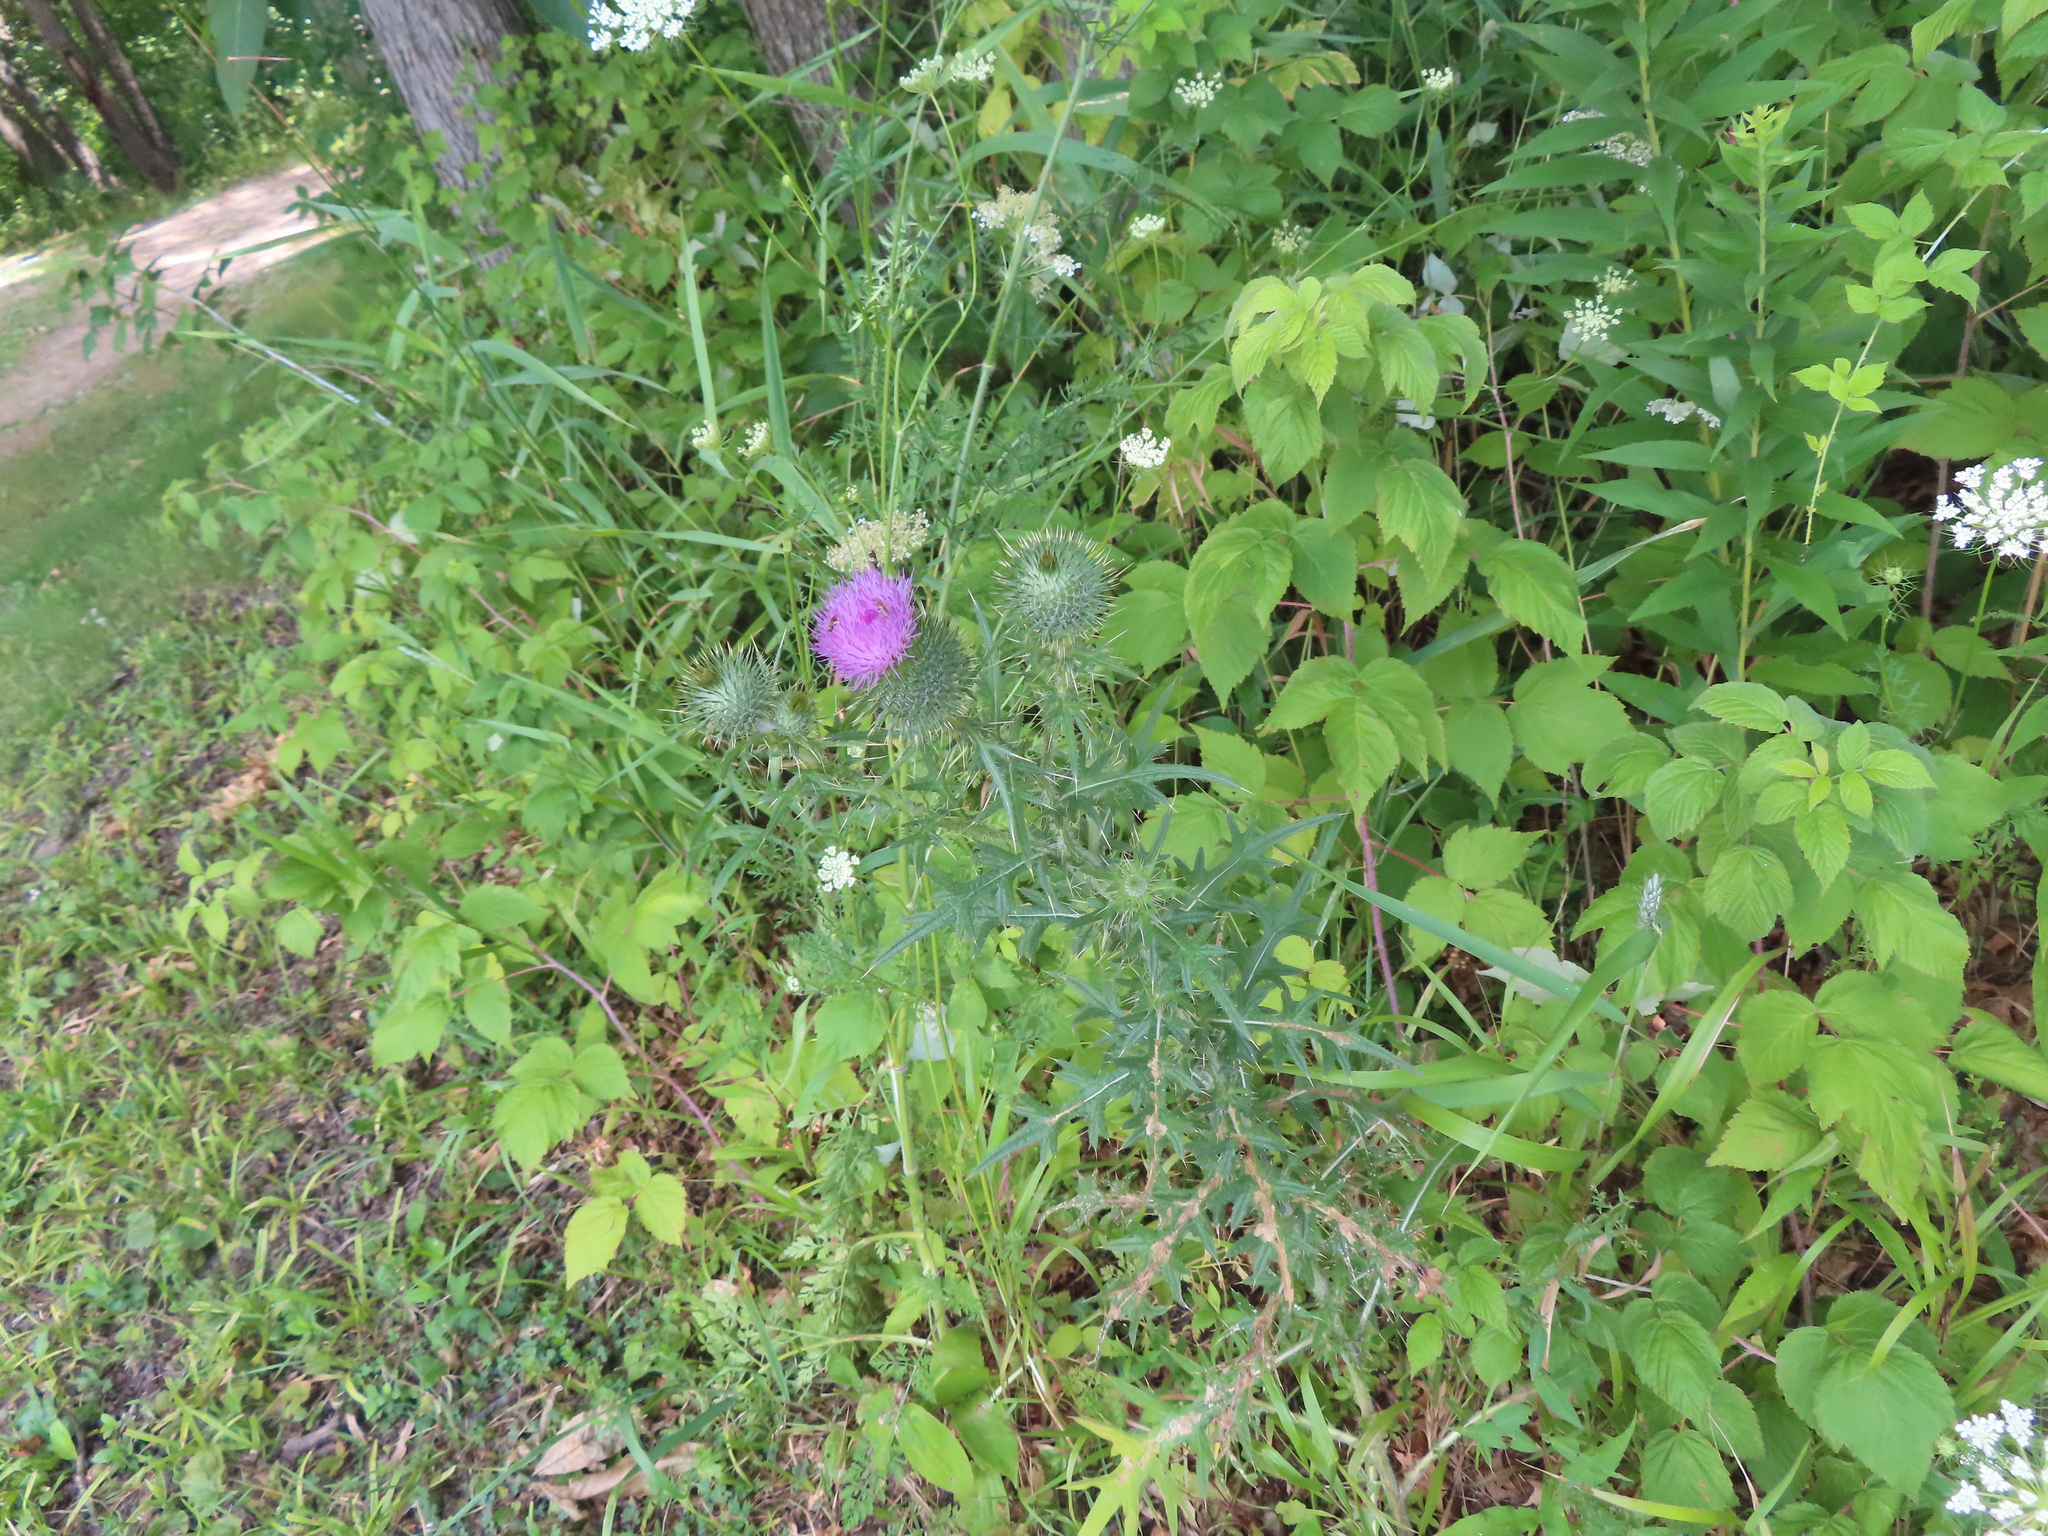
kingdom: Plantae
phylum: Tracheophyta
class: Magnoliopsida
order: Asterales
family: Asteraceae
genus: Cirsium
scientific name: Cirsium vulgare
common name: Bull thistle
